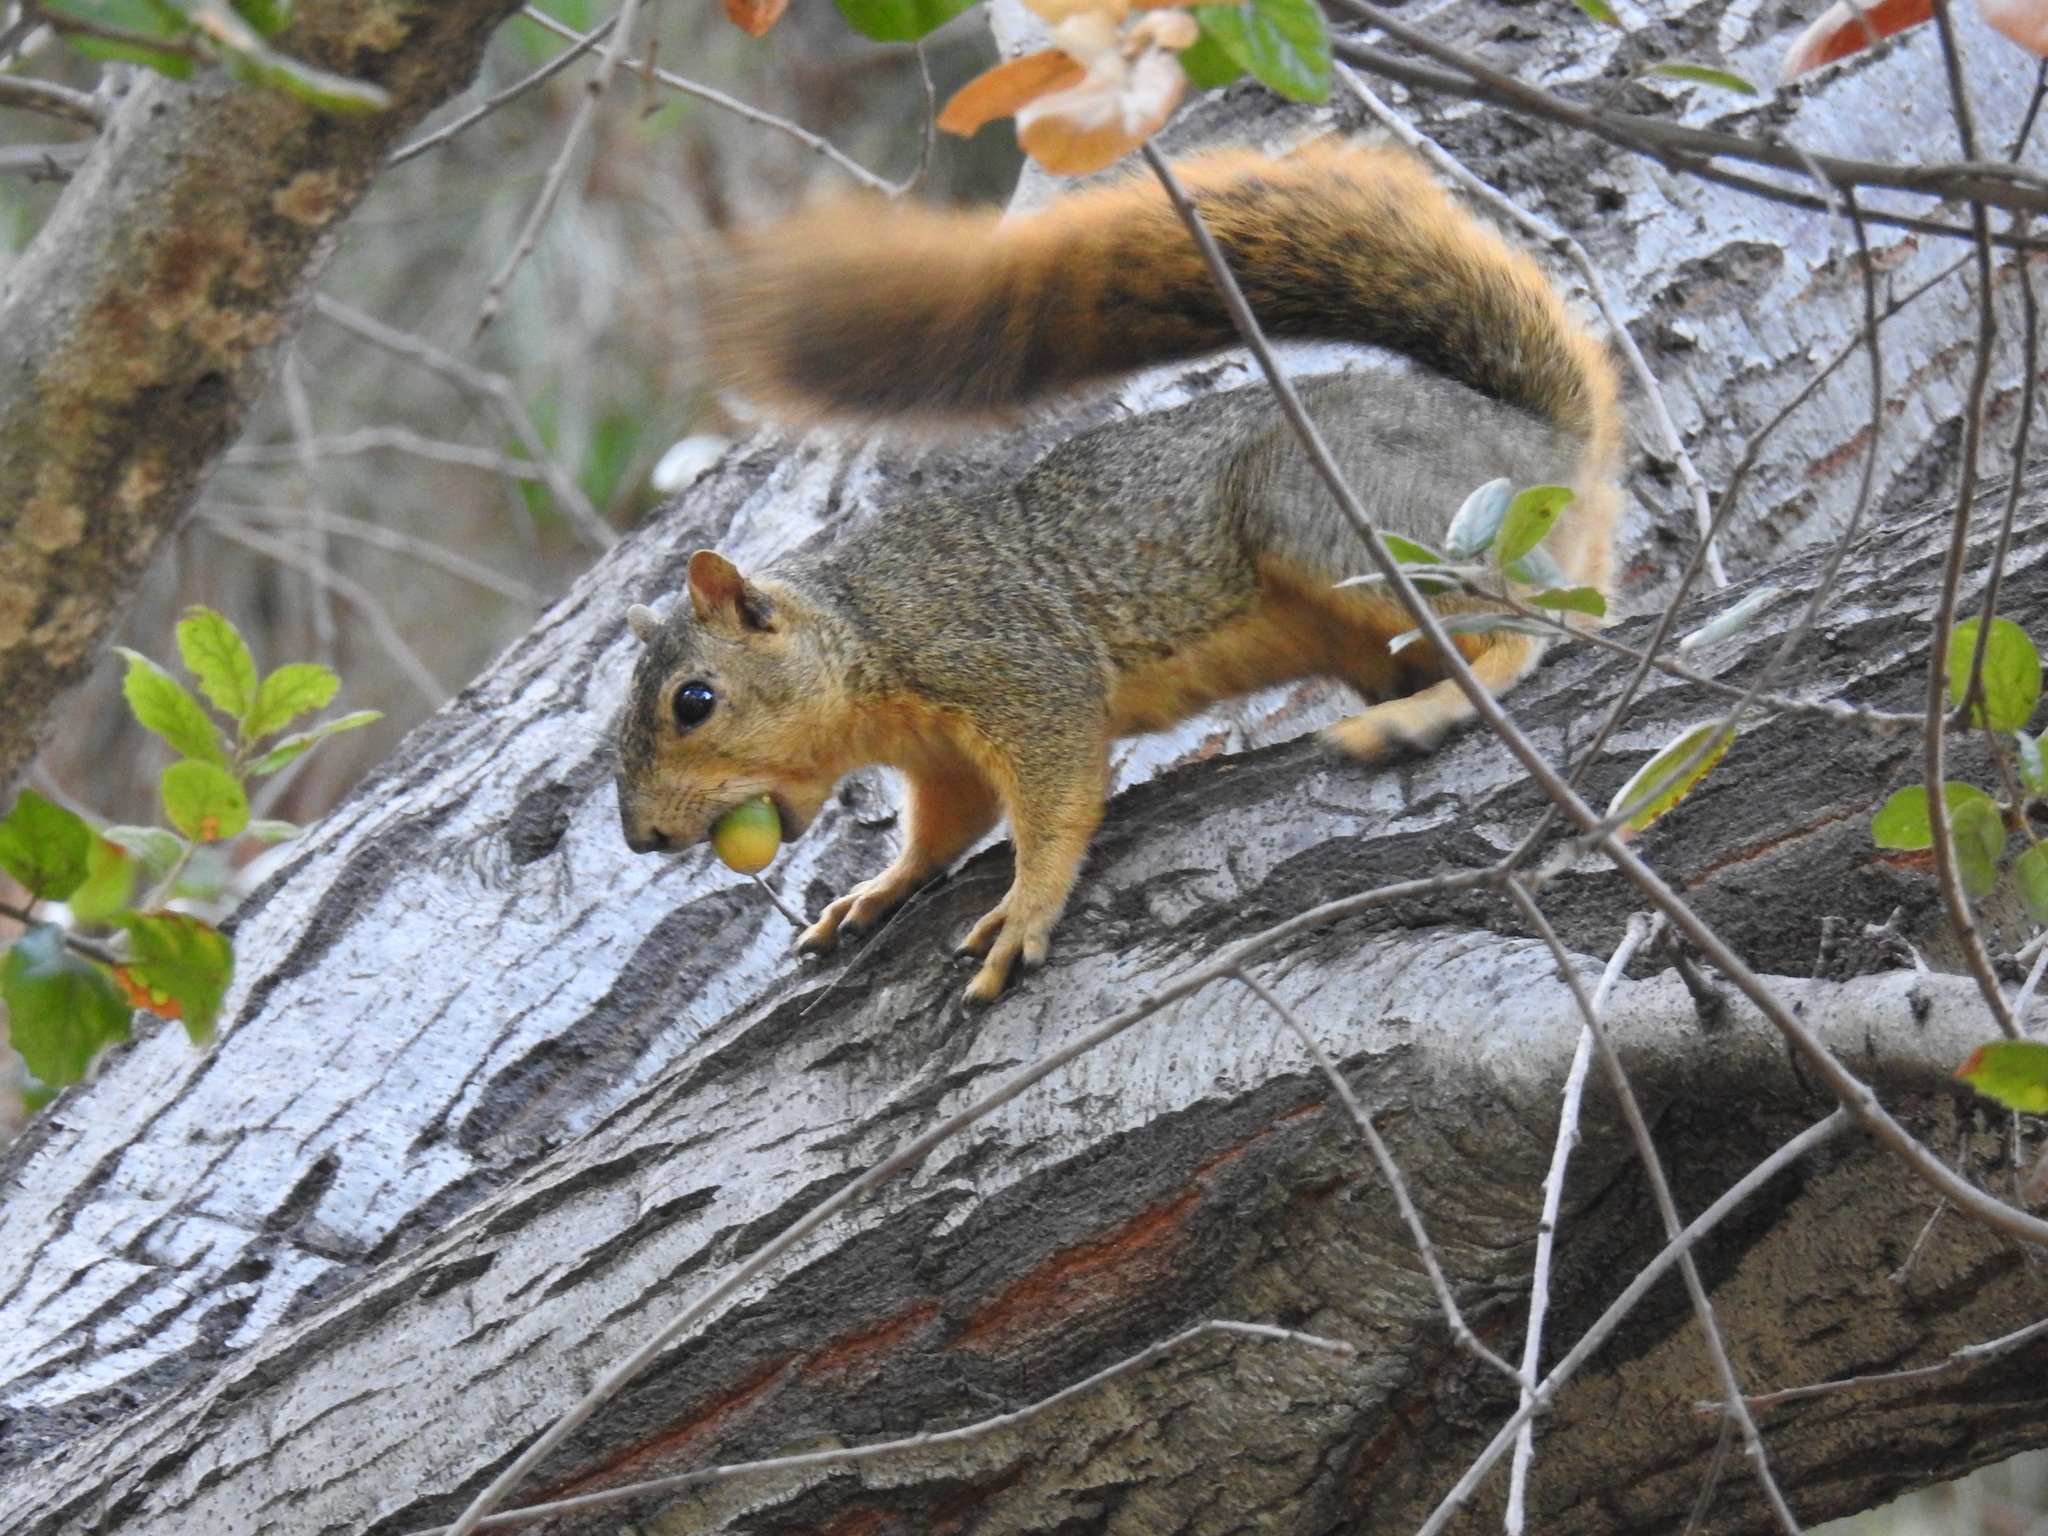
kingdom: Animalia
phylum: Chordata
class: Mammalia
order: Rodentia
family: Sciuridae
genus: Sciurus
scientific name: Sciurus niger
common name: Fox squirrel
